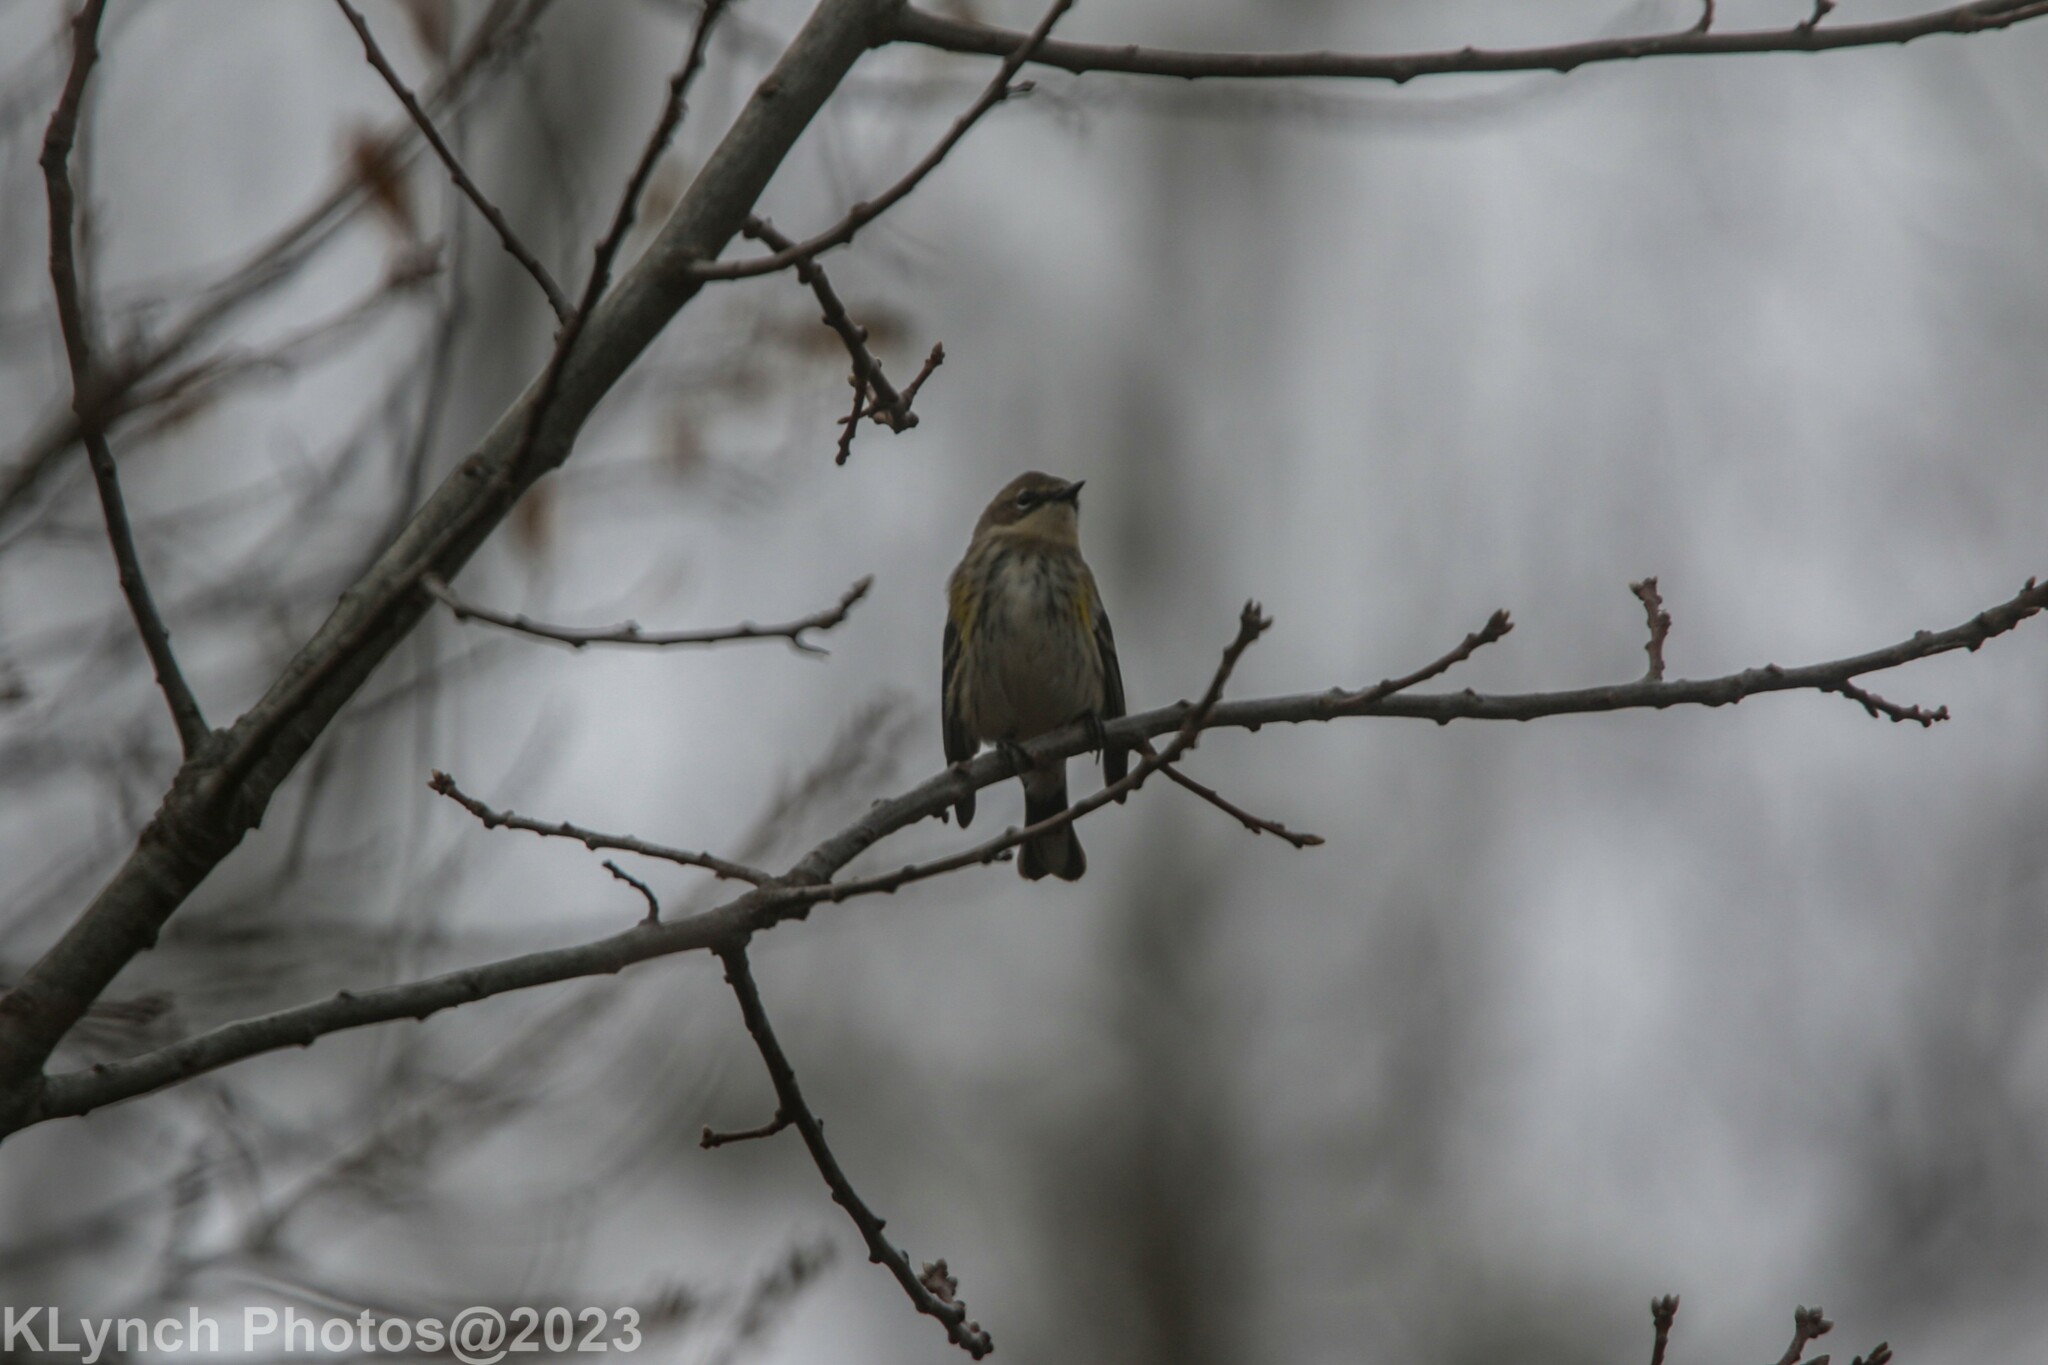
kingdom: Animalia
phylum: Chordata
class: Aves
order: Passeriformes
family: Parulidae
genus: Setophaga
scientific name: Setophaga coronata
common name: Myrtle warbler
